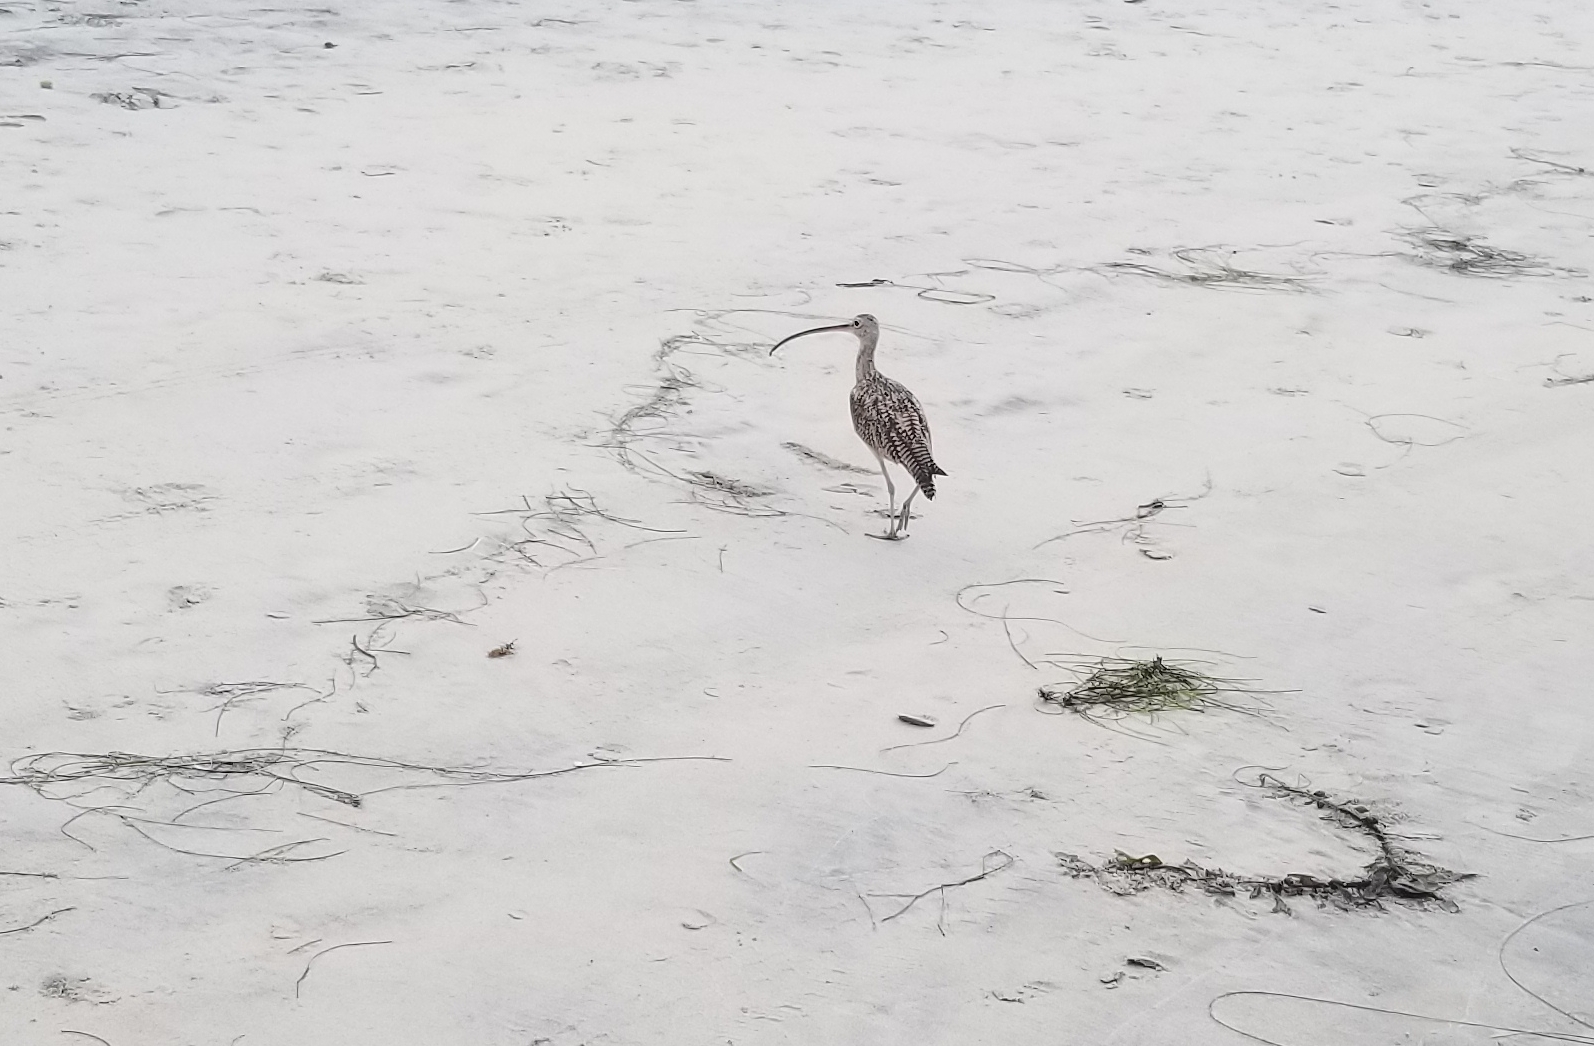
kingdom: Animalia
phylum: Chordata
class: Aves
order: Charadriiformes
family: Scolopacidae
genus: Numenius
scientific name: Numenius americanus
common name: Long-billed curlew
